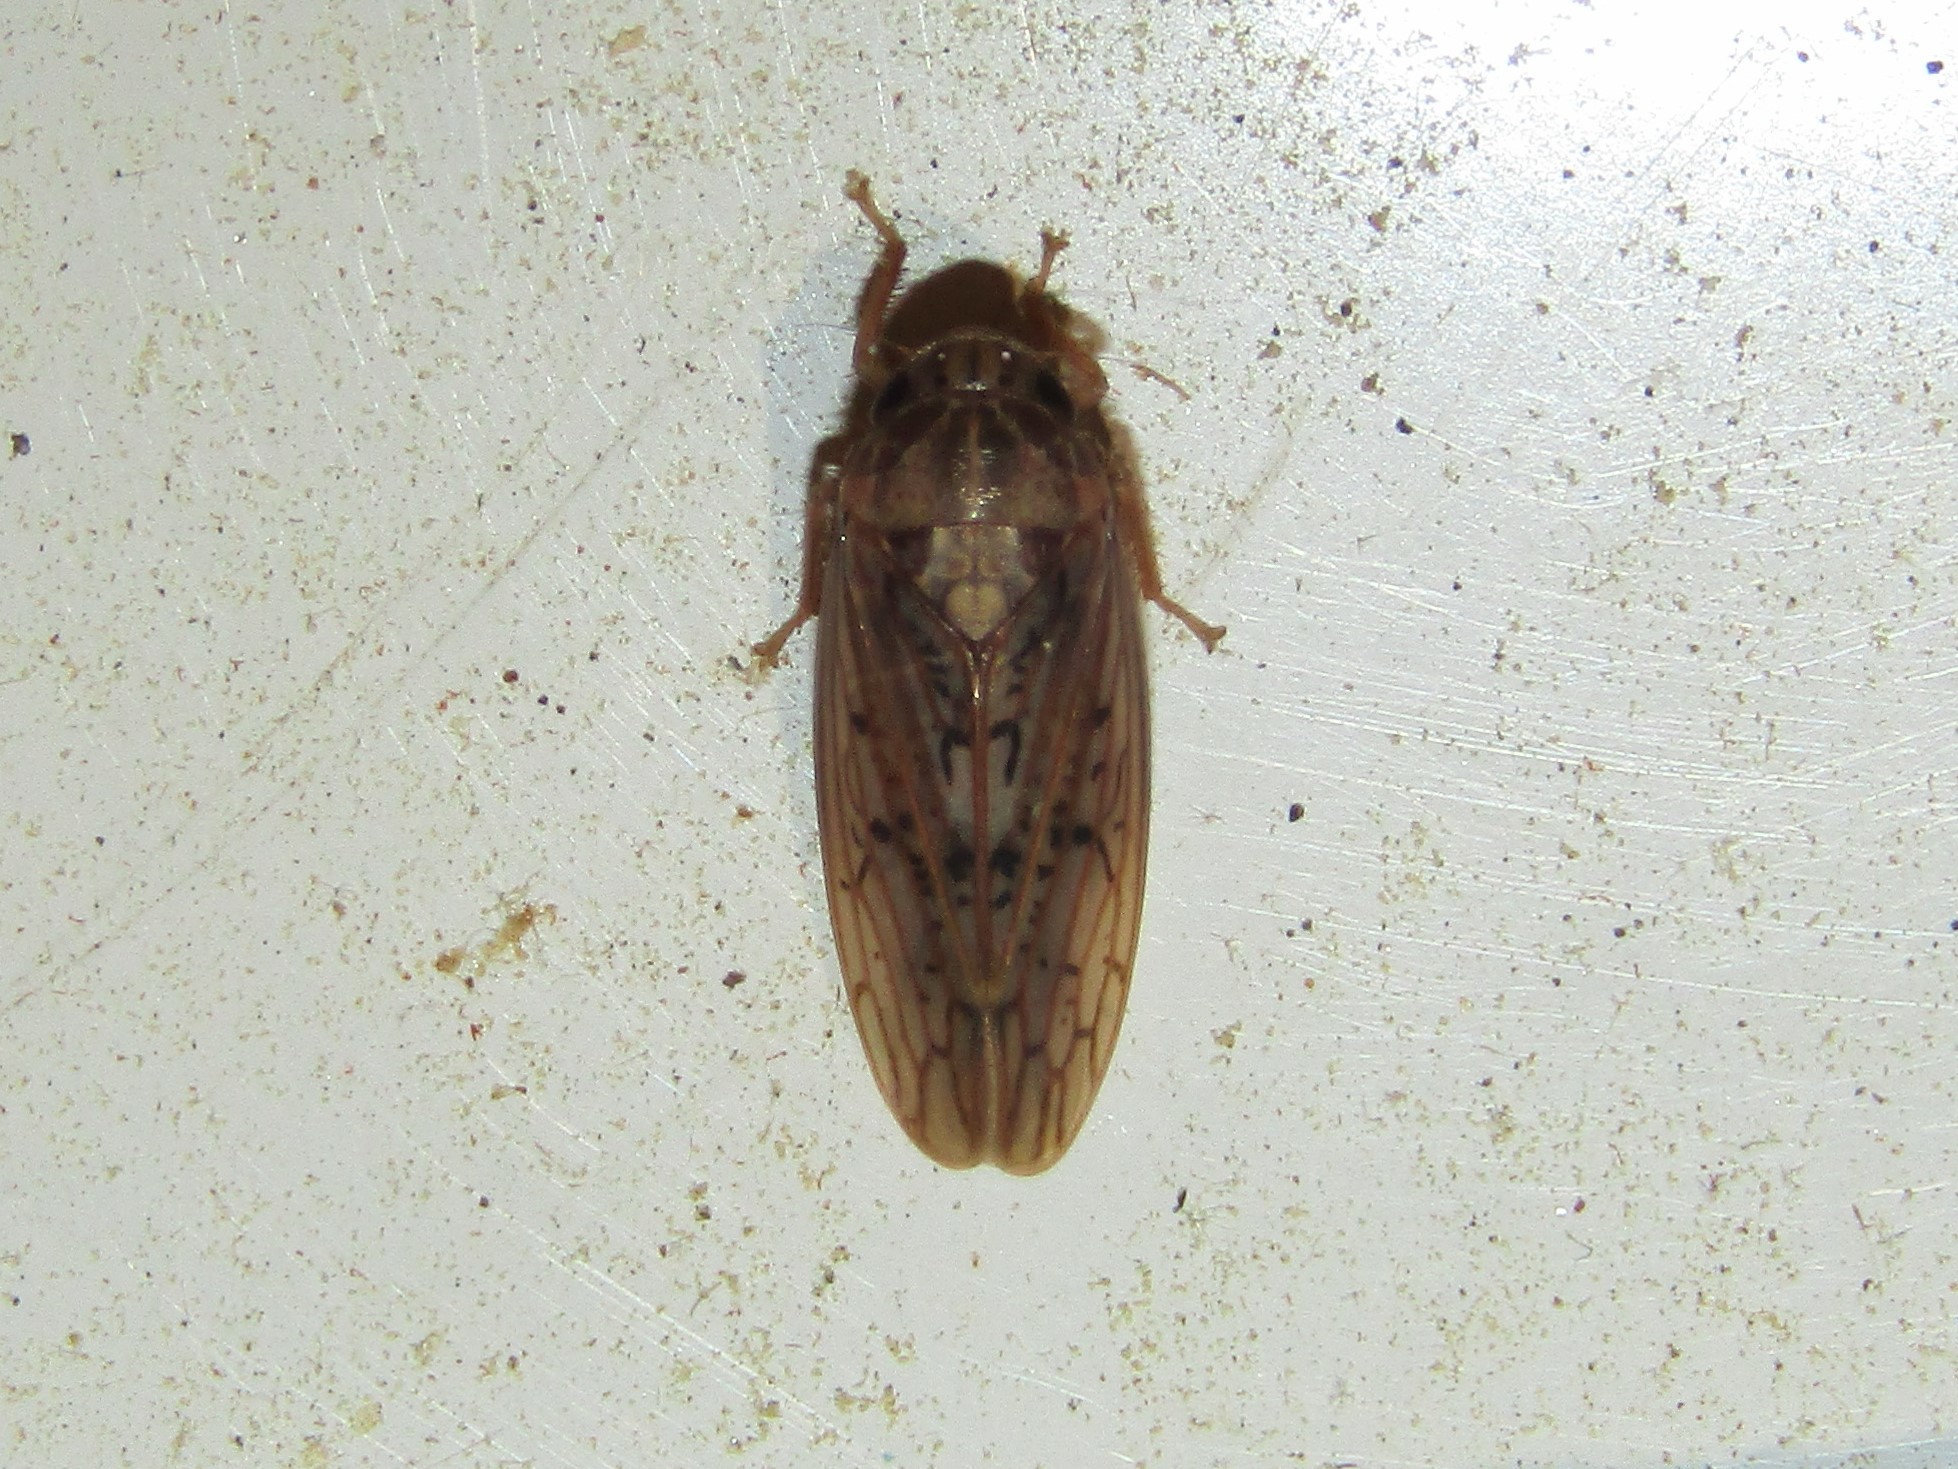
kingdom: Animalia
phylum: Arthropoda
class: Insecta
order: Hemiptera
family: Cicadellidae
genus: Ponana
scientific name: Ponana rubida
